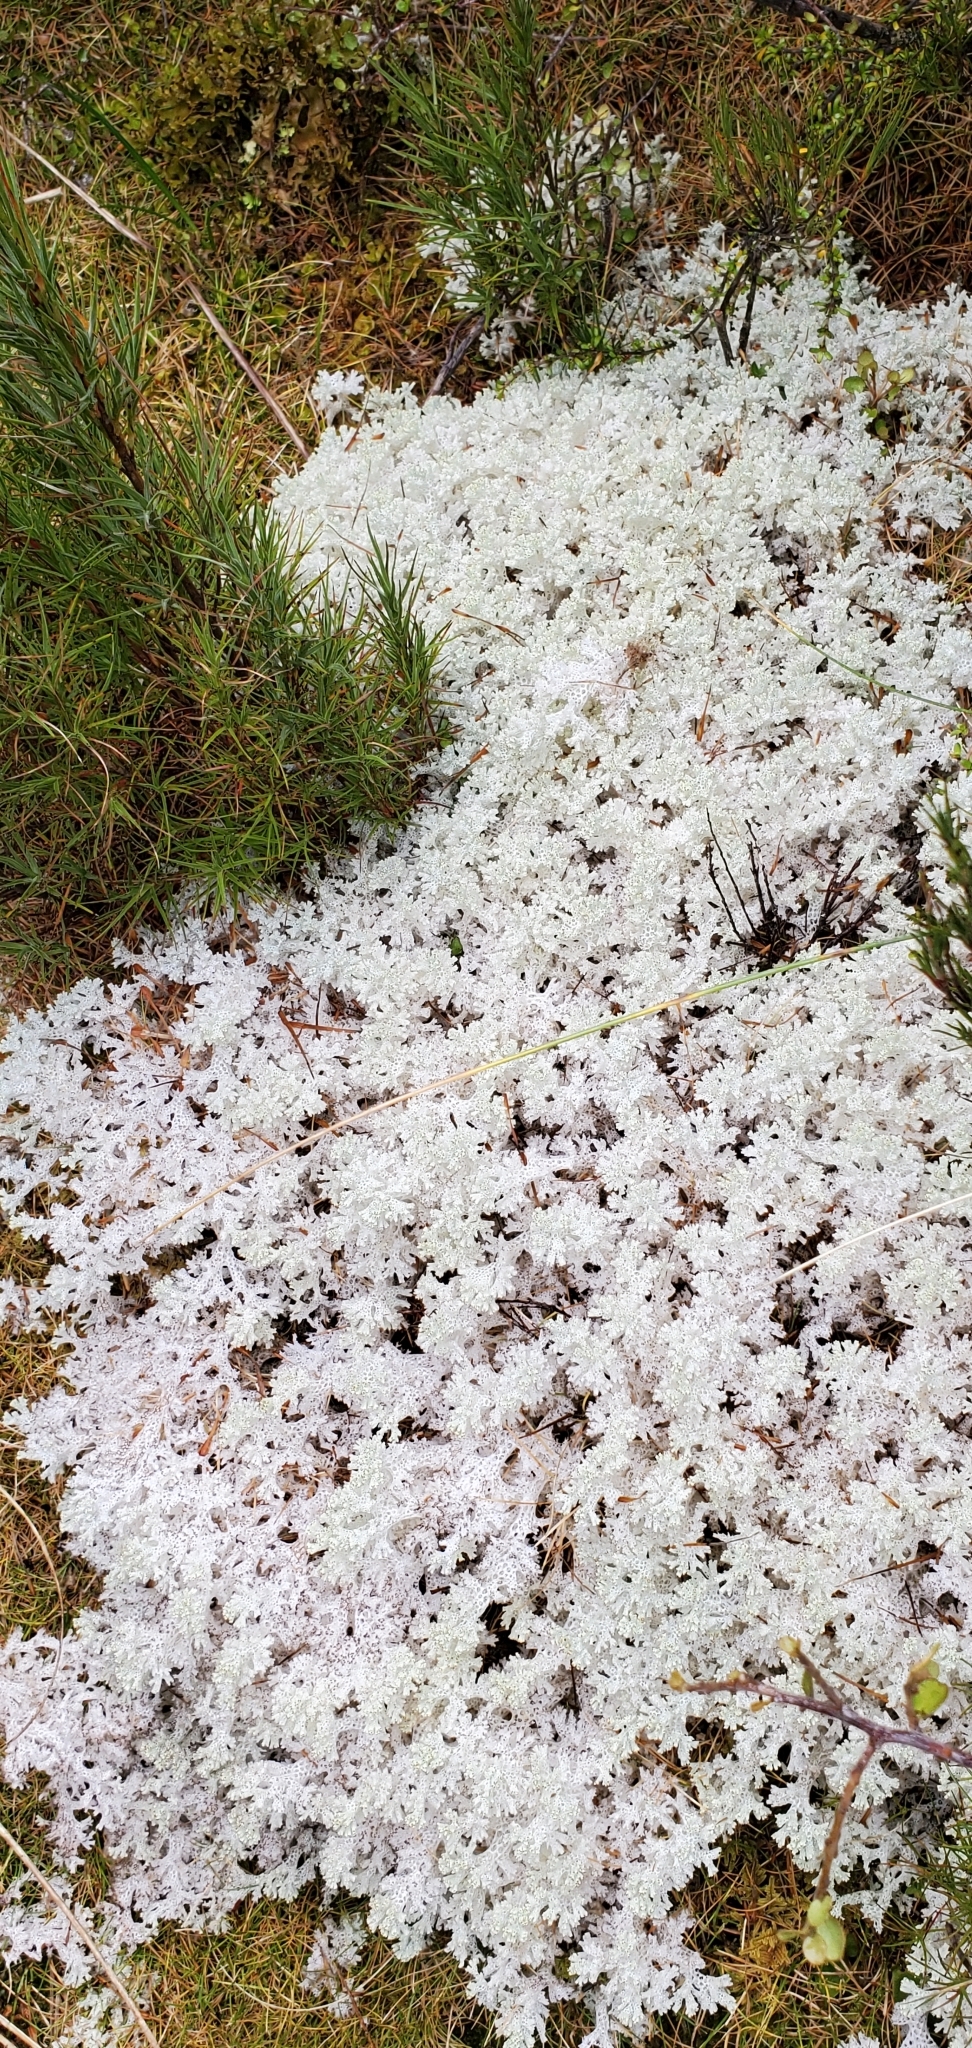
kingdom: Fungi
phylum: Ascomycota
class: Lecanoromycetes
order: Lecanorales
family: Cladoniaceae
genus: Pulchrocladia
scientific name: Pulchrocladia retipora
